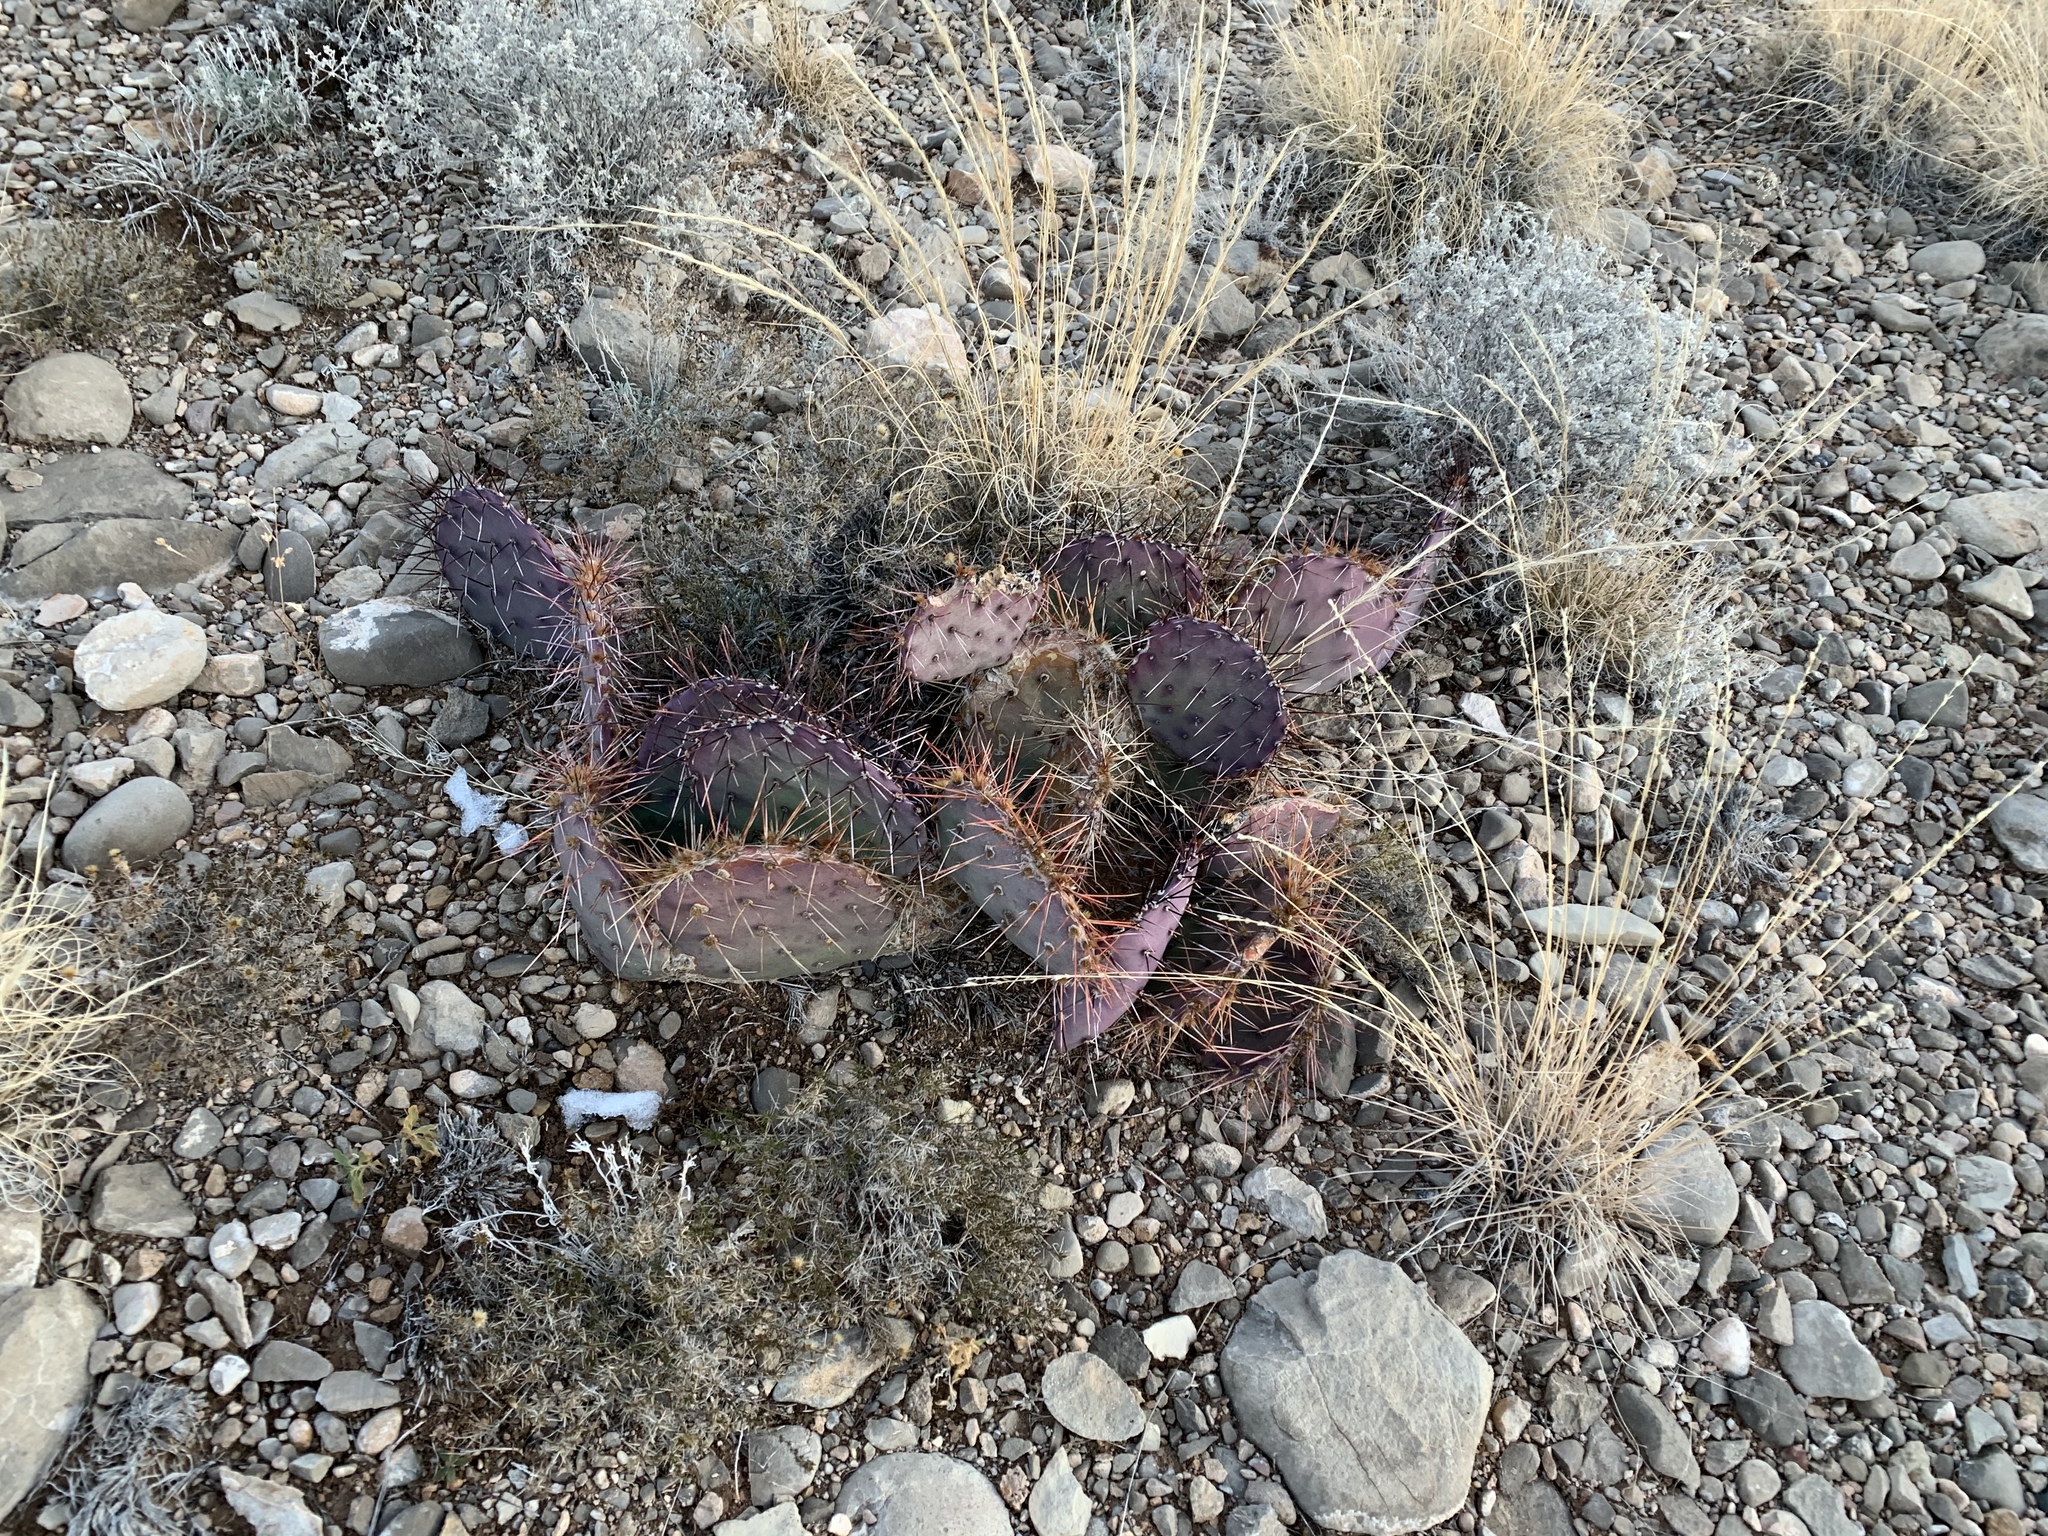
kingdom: Plantae
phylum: Tracheophyta
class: Magnoliopsida
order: Caryophyllales
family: Cactaceae
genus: Opuntia
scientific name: Opuntia macrocentra
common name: Purple prickly-pear
